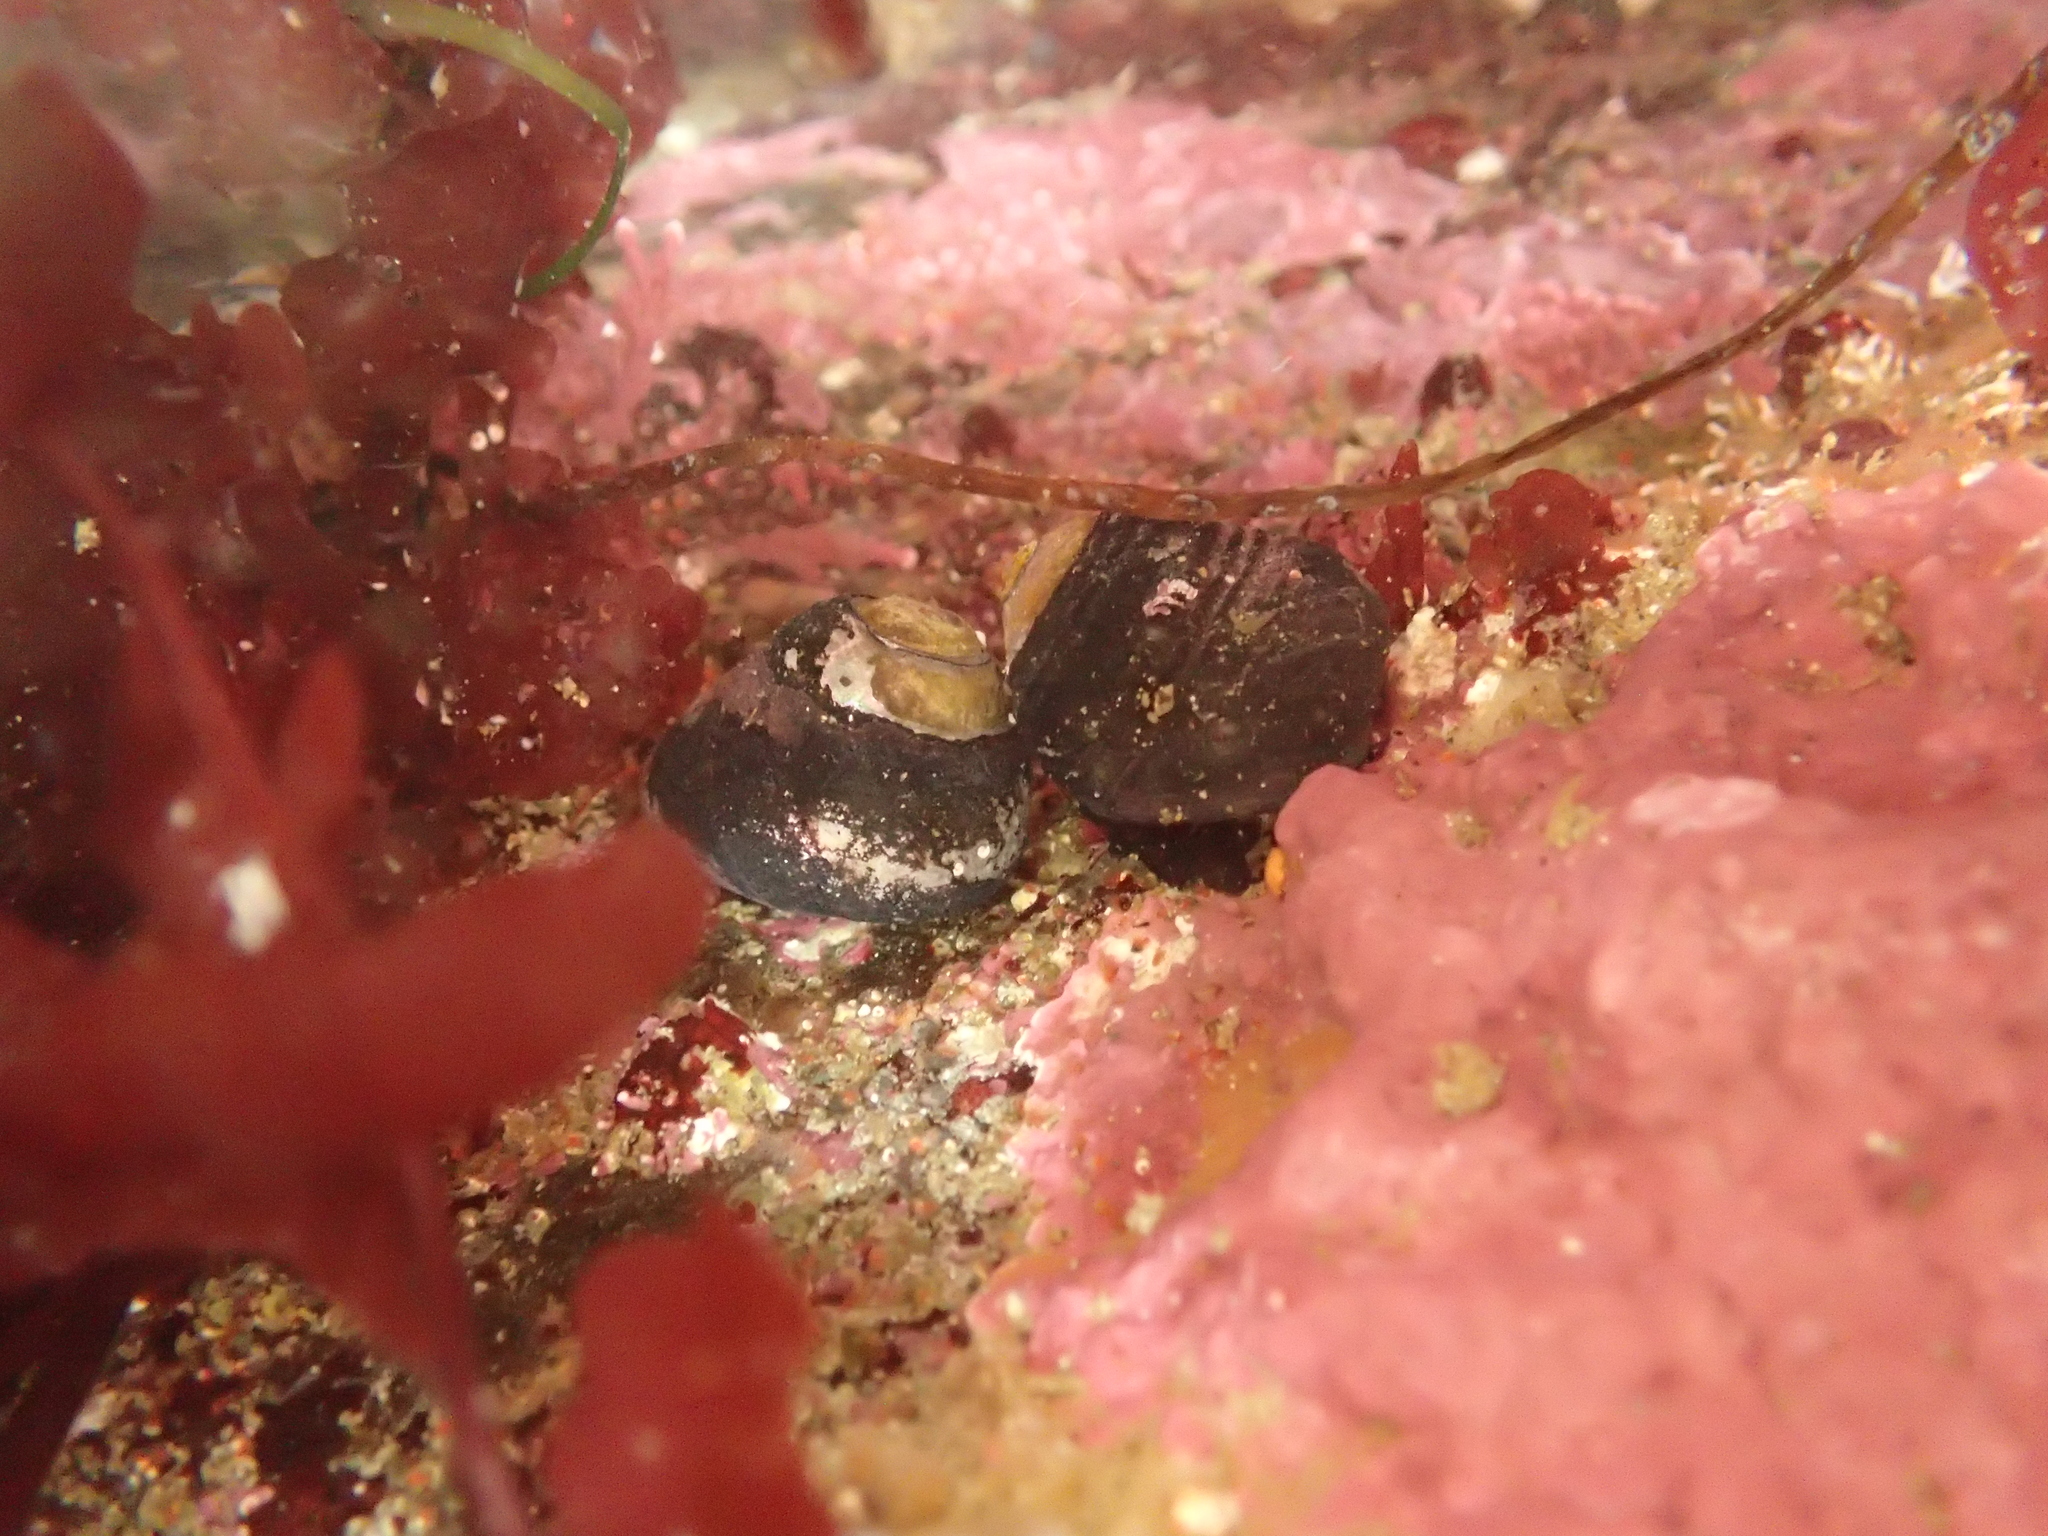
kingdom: Animalia
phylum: Mollusca
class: Gastropoda
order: Trochida
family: Tegulidae
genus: Tegula
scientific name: Tegula funebralis
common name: Black tegula
